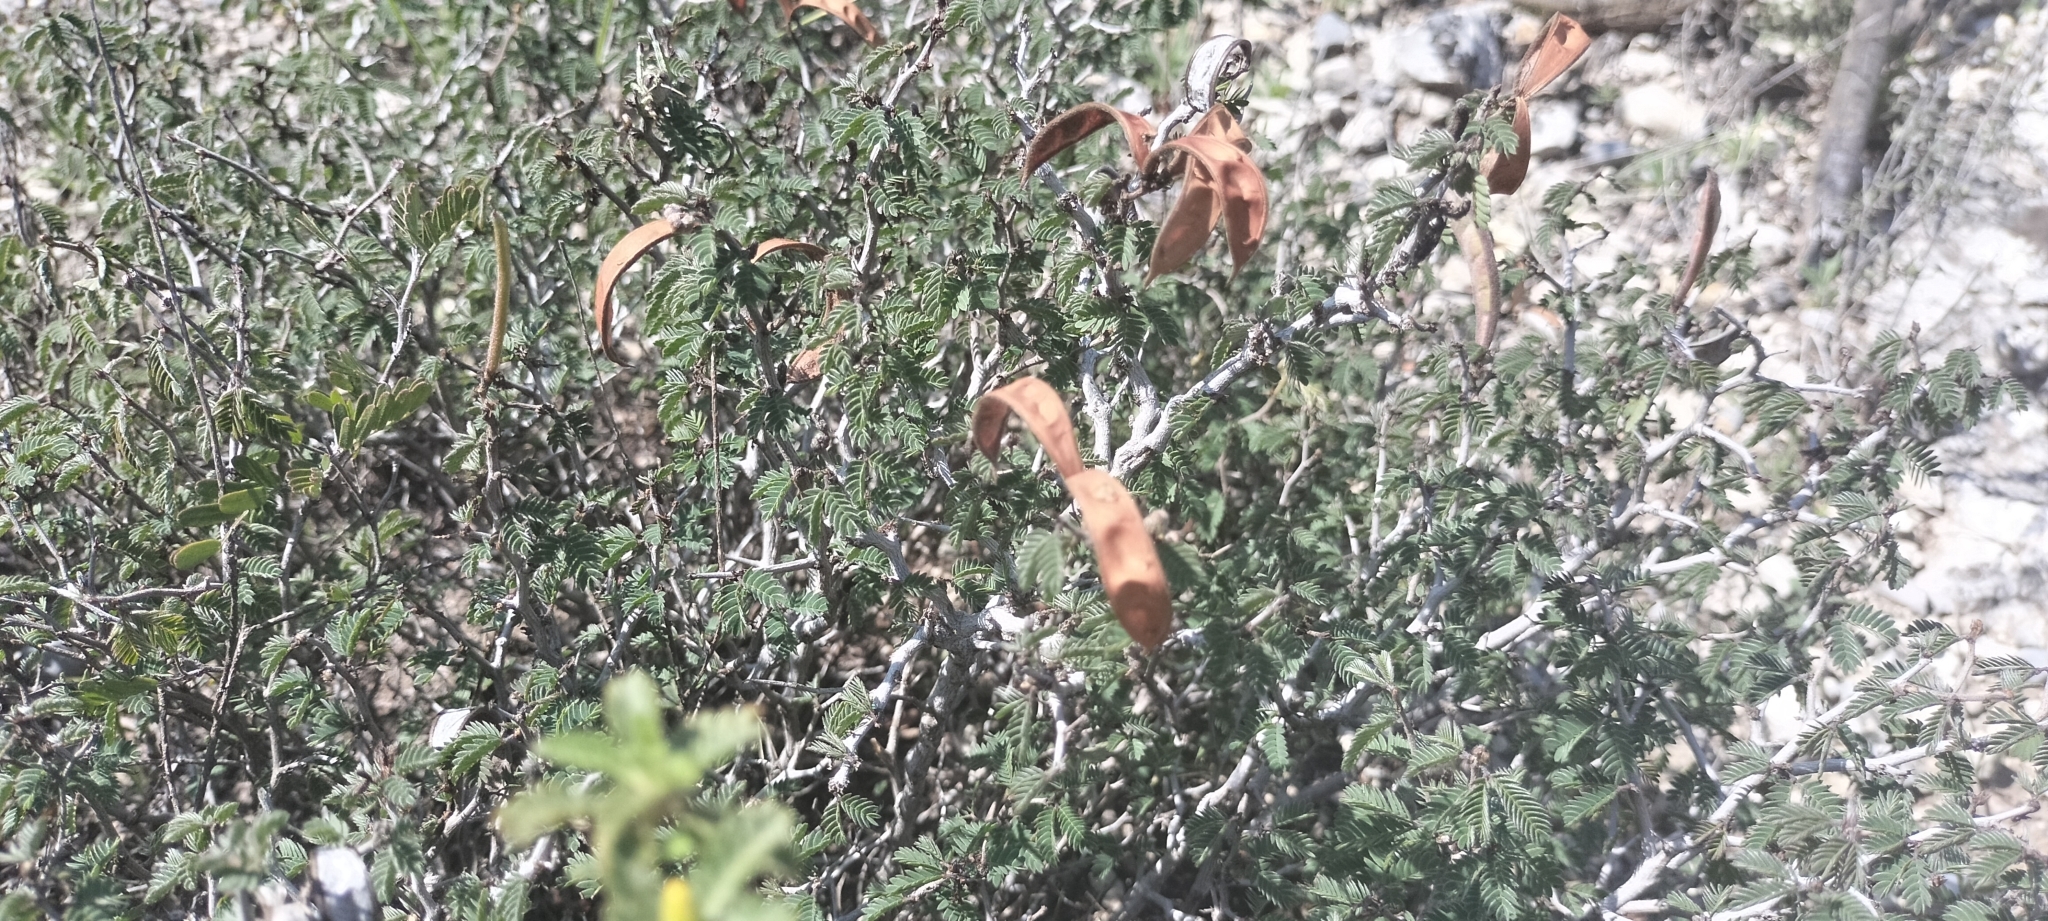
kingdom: Plantae
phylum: Tracheophyta
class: Magnoliopsida
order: Fabales
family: Fabaceae
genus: Calliandra
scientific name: Calliandra conferta
